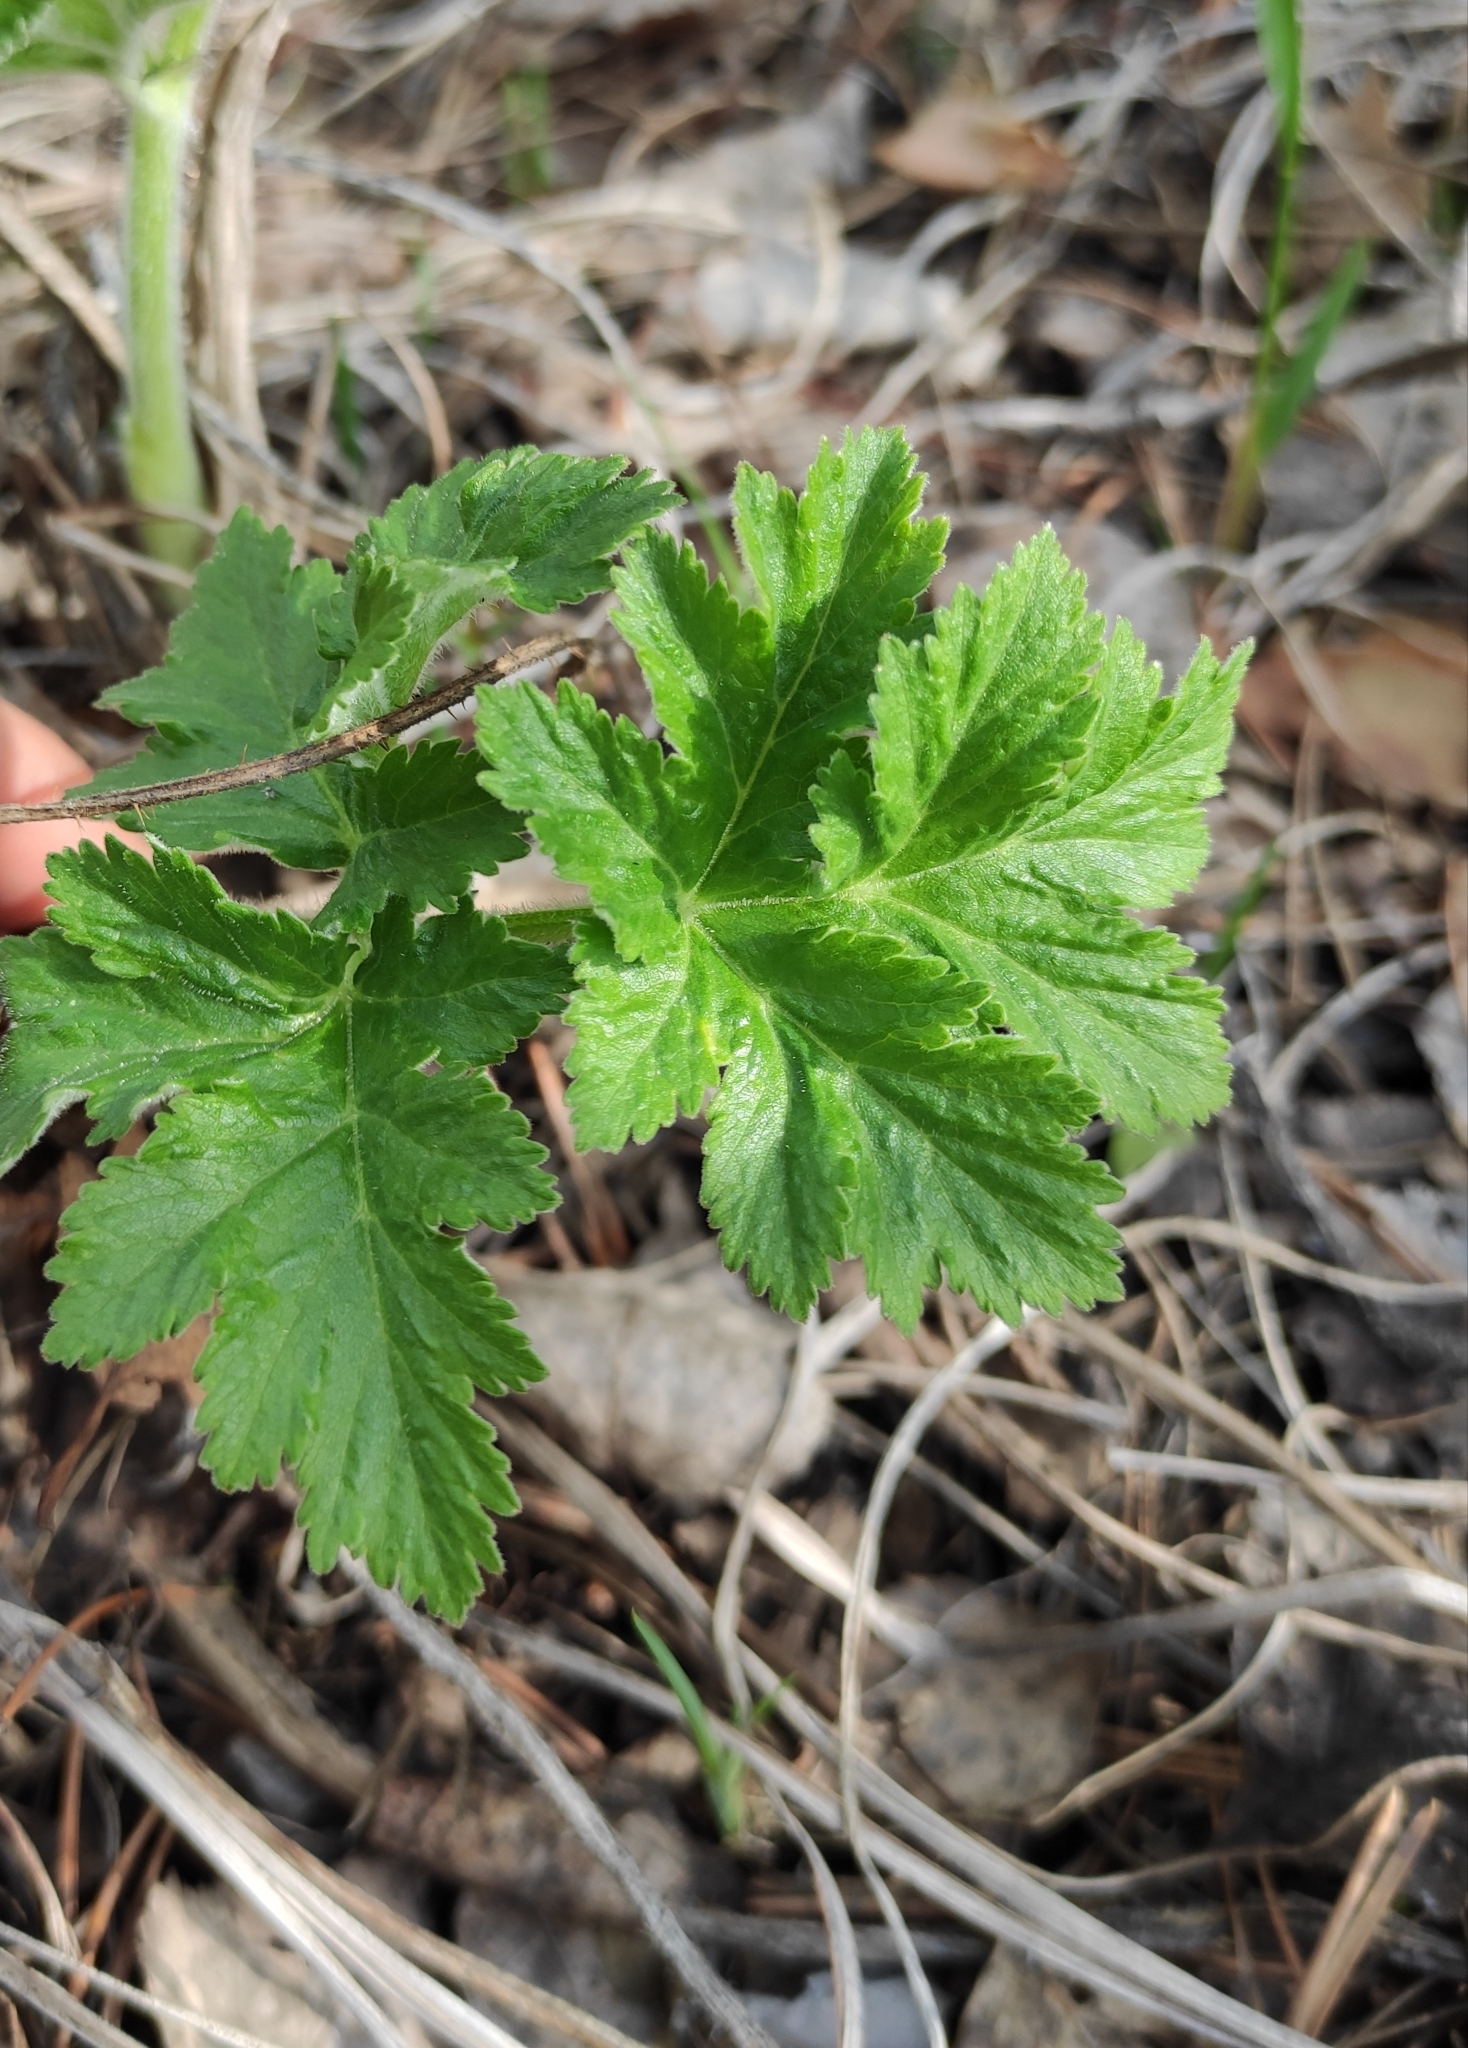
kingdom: Plantae
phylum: Tracheophyta
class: Magnoliopsida
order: Apiales
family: Apiaceae
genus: Heracleum
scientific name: Heracleum dissectum
